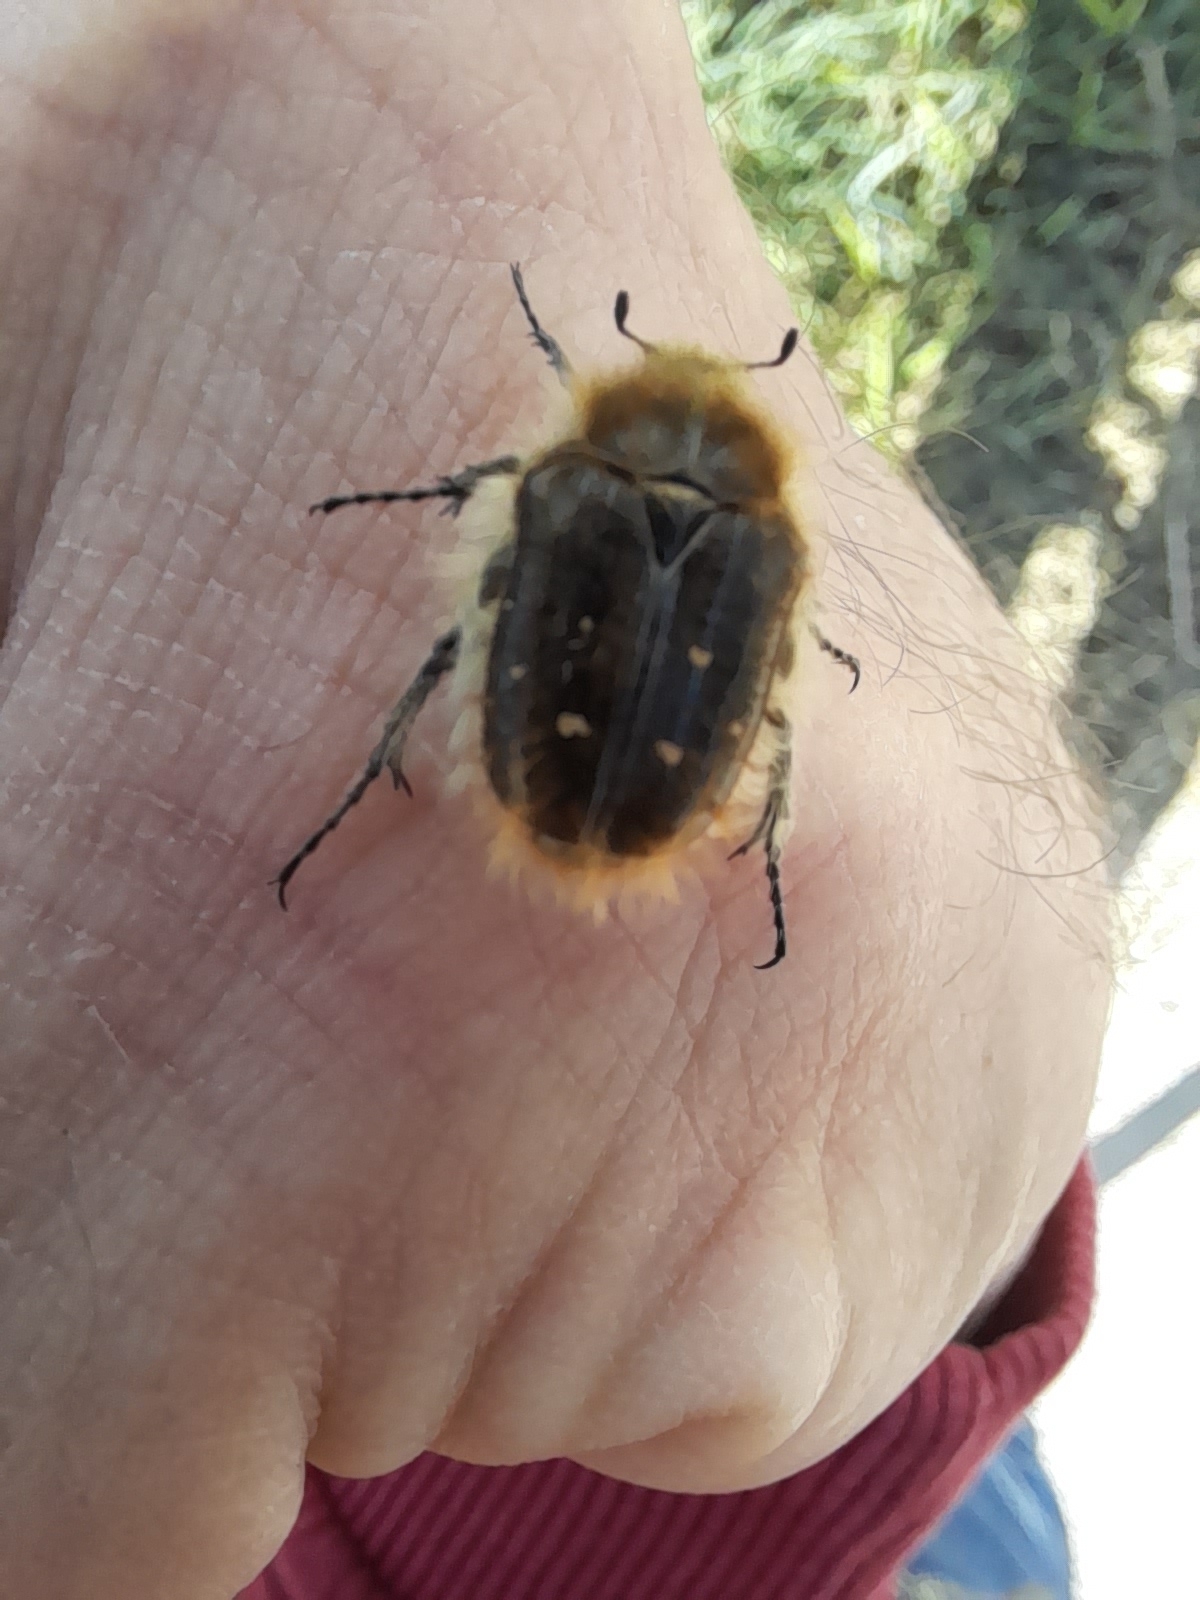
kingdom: Animalia
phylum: Arthropoda
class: Insecta
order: Coleoptera
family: Scarabaeidae
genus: Tropinota
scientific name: Tropinota squalida
